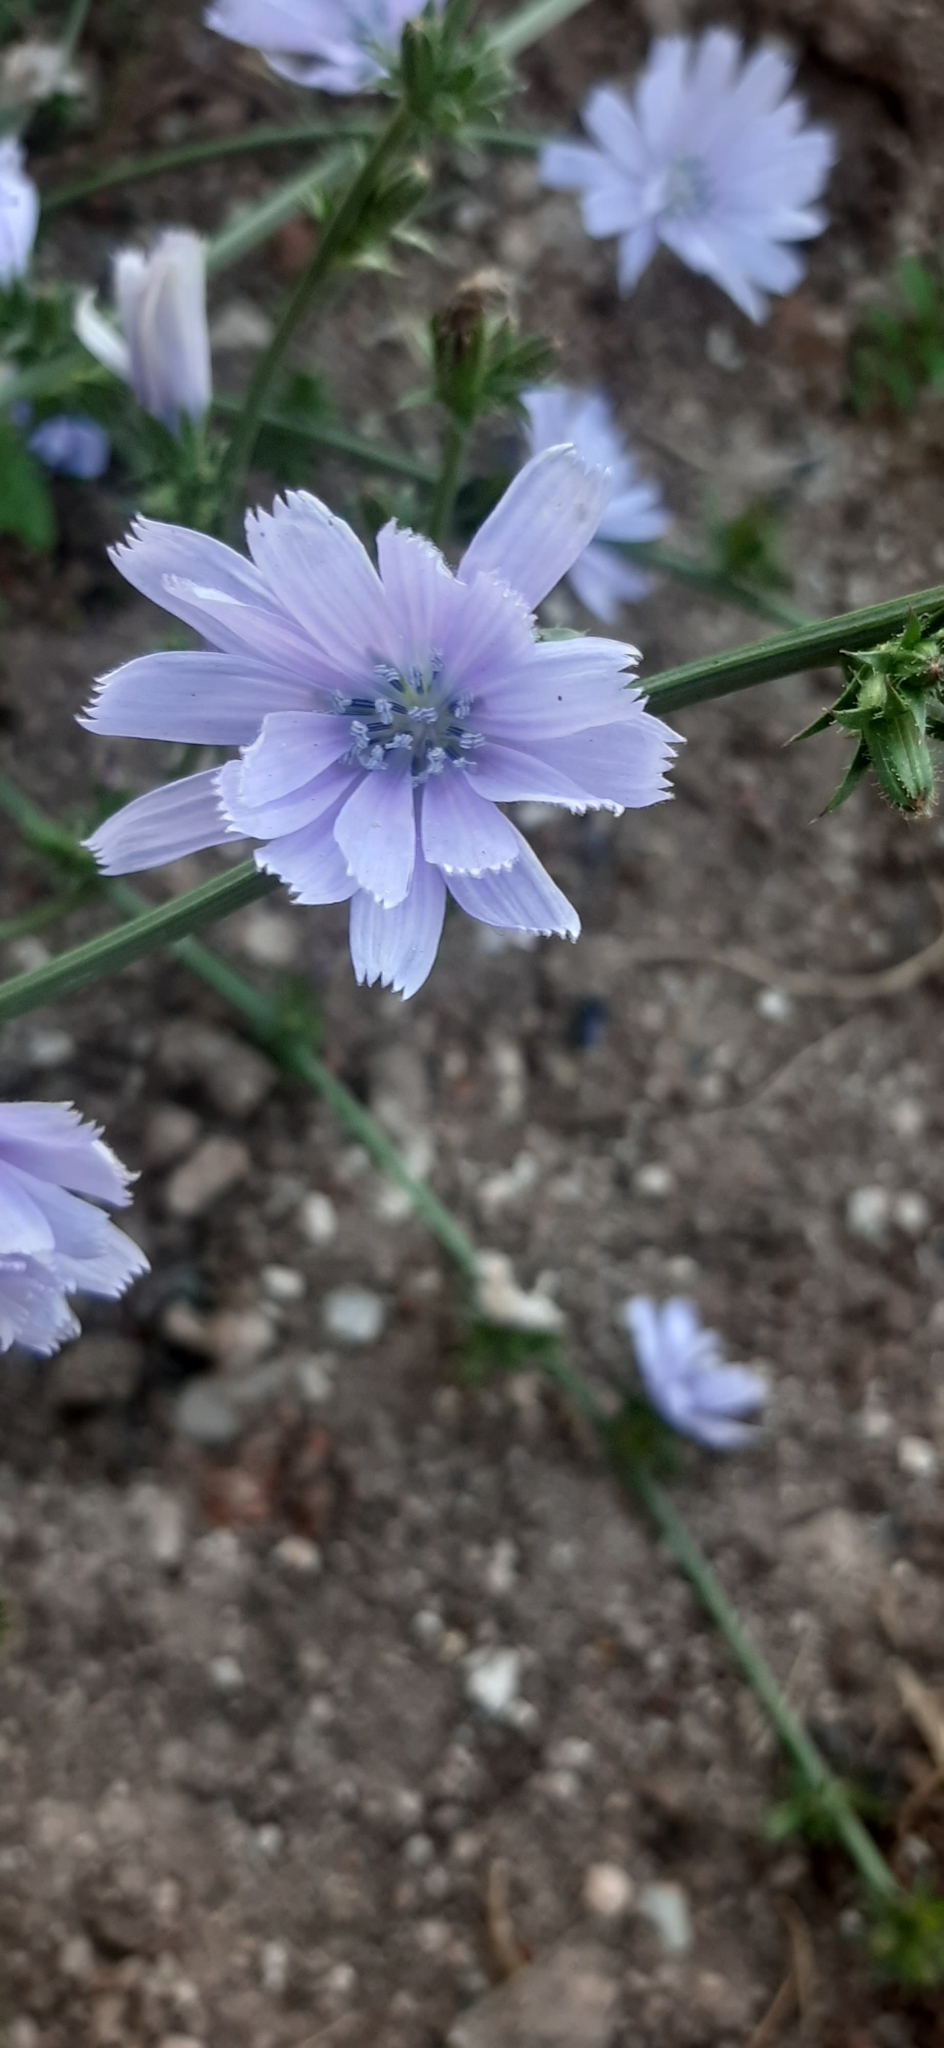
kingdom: Plantae
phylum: Tracheophyta
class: Magnoliopsida
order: Asterales
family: Asteraceae
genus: Cichorium
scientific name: Cichorium intybus
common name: Chicory
